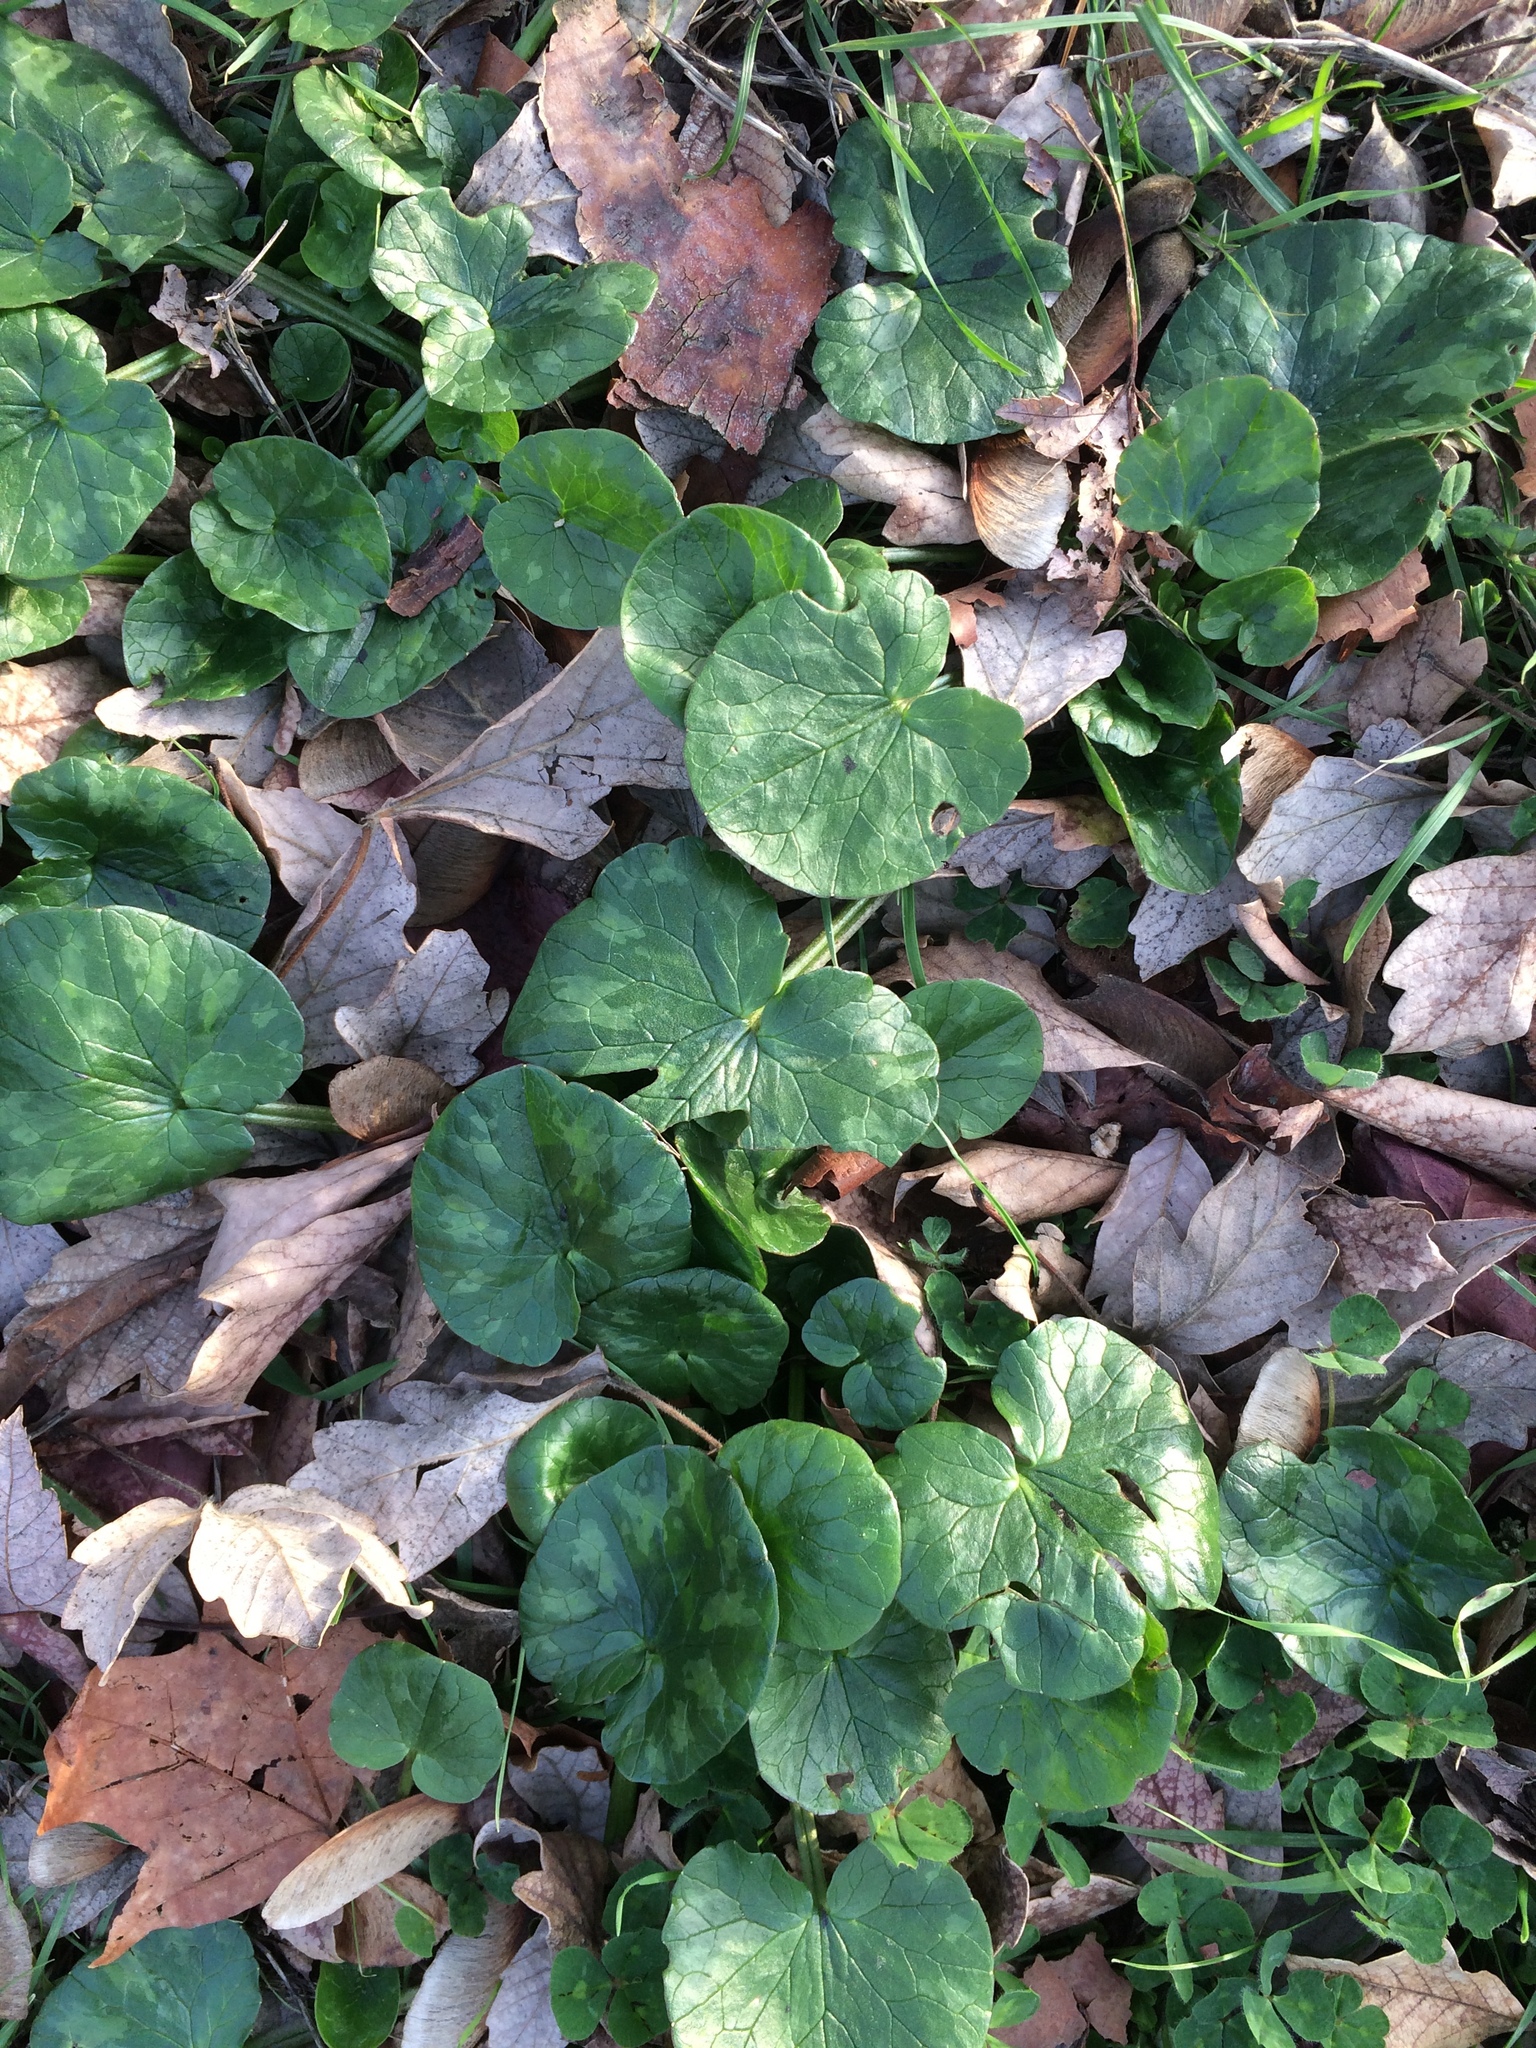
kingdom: Plantae
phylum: Tracheophyta
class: Magnoliopsida
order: Ranunculales
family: Ranunculaceae
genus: Ficaria
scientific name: Ficaria verna
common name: Lesser celandine
